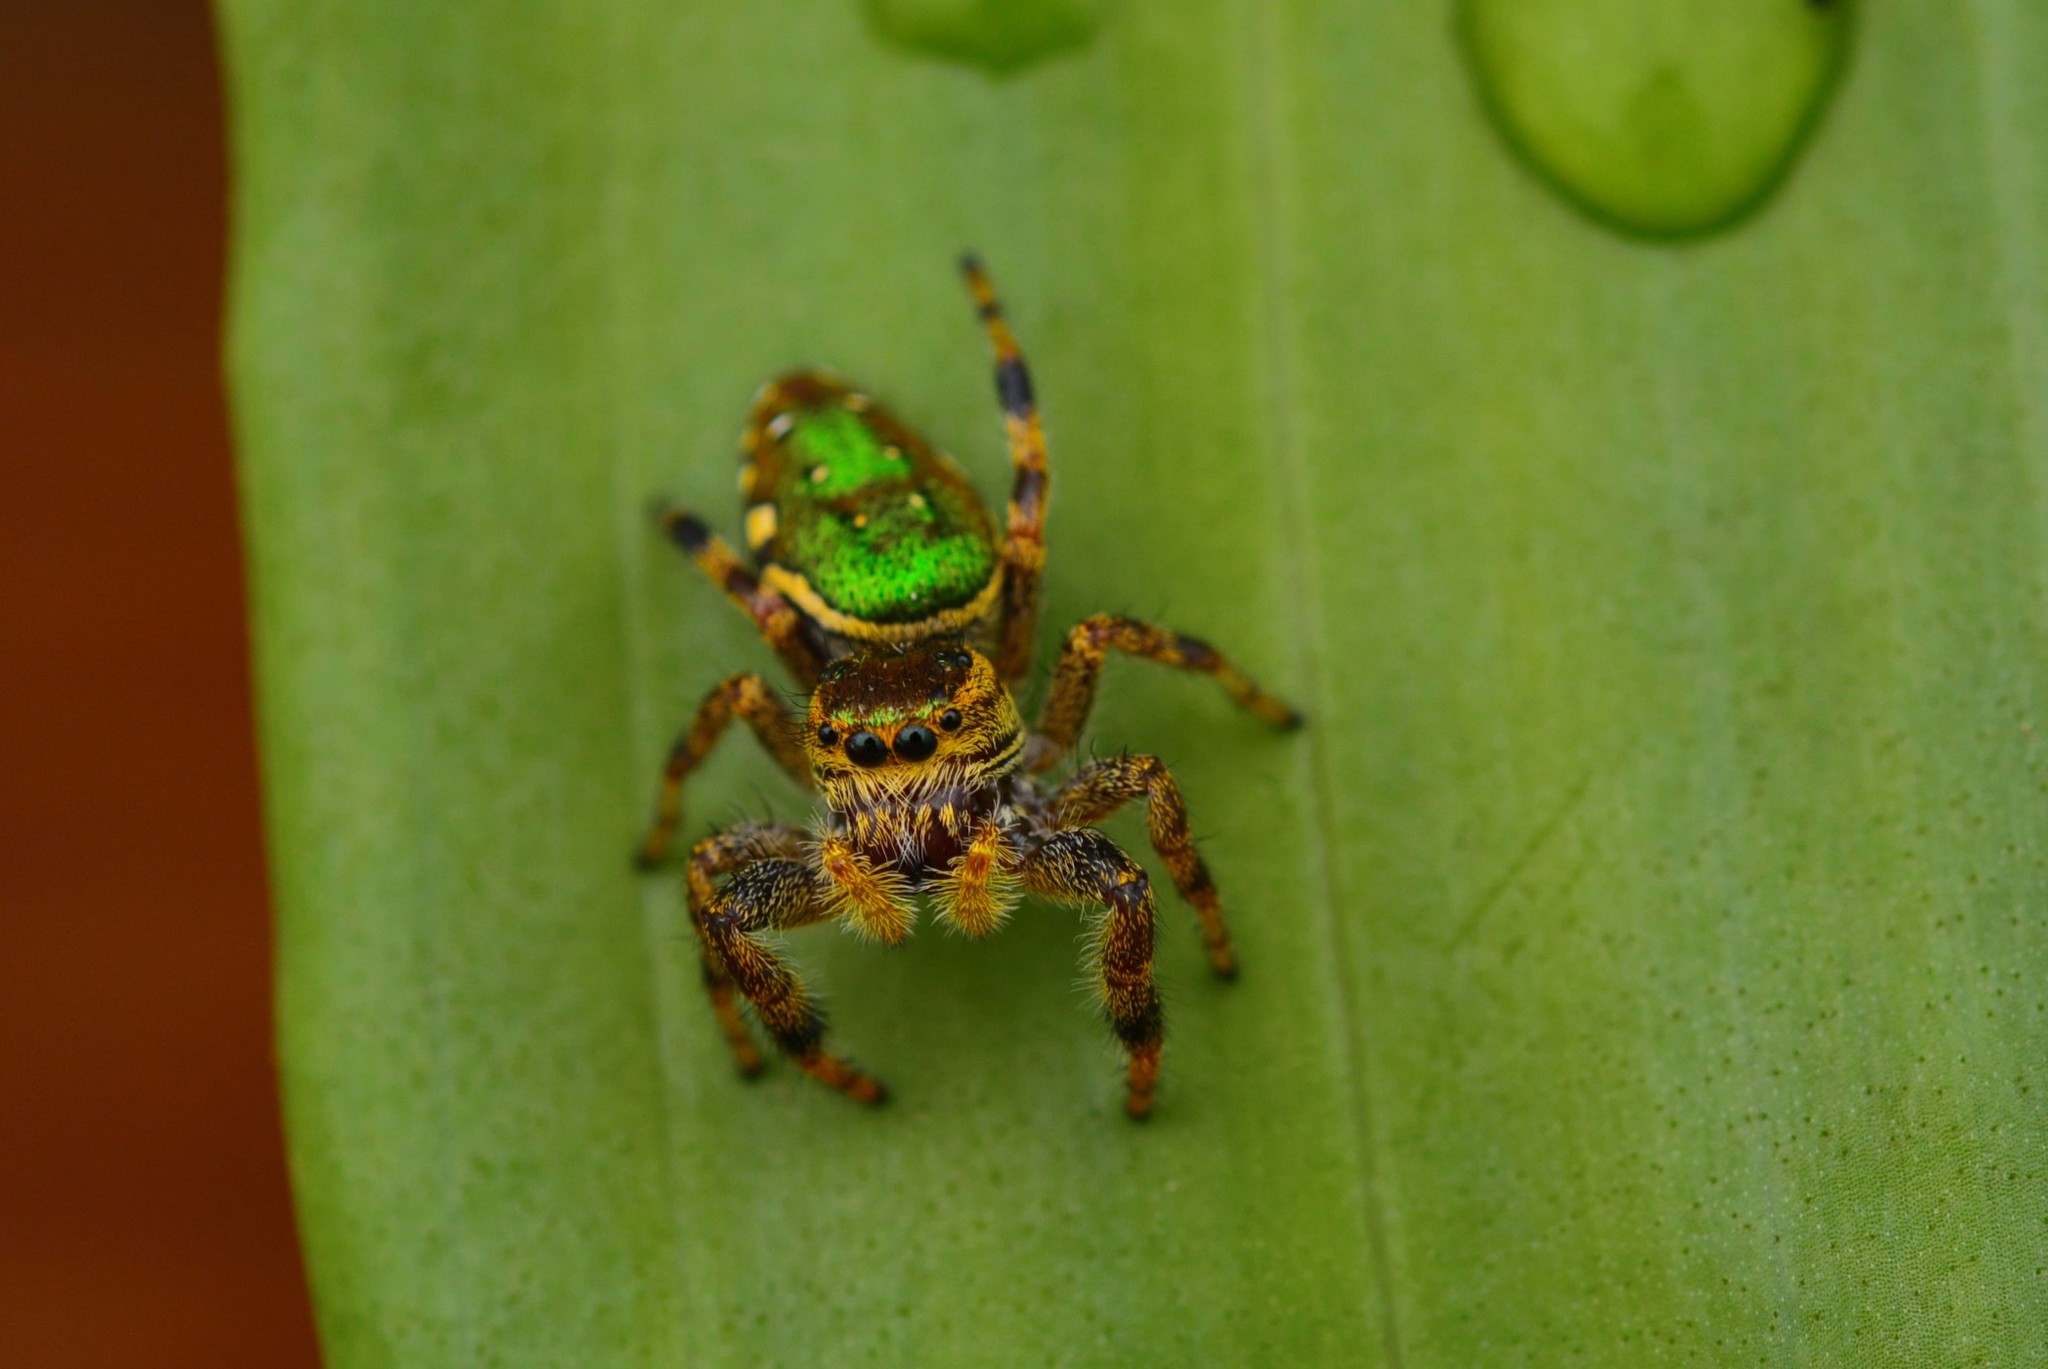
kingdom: Animalia
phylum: Arthropoda
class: Arachnida
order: Araneae
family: Salticidae
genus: Paraphidippus
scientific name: Paraphidippus aurantius
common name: Jumping spiders
